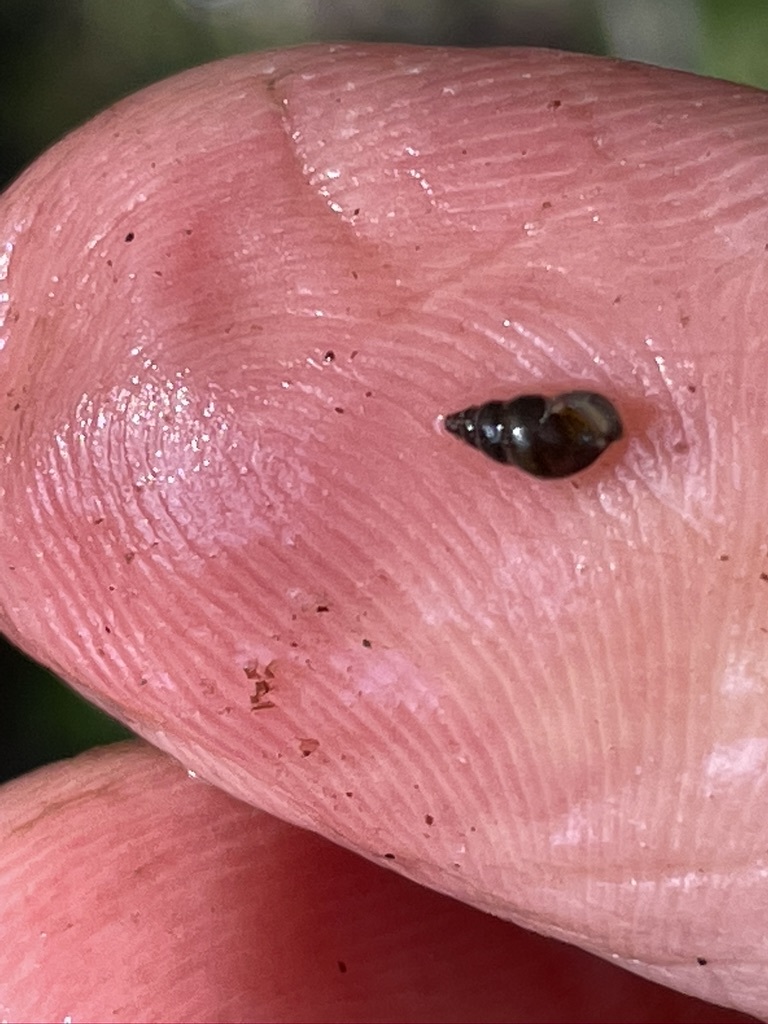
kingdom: Animalia
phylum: Mollusca
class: Gastropoda
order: Littorinimorpha
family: Tateidae
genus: Potamopyrgus
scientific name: Potamopyrgus antipodarum
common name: Jenkins' spire snail
